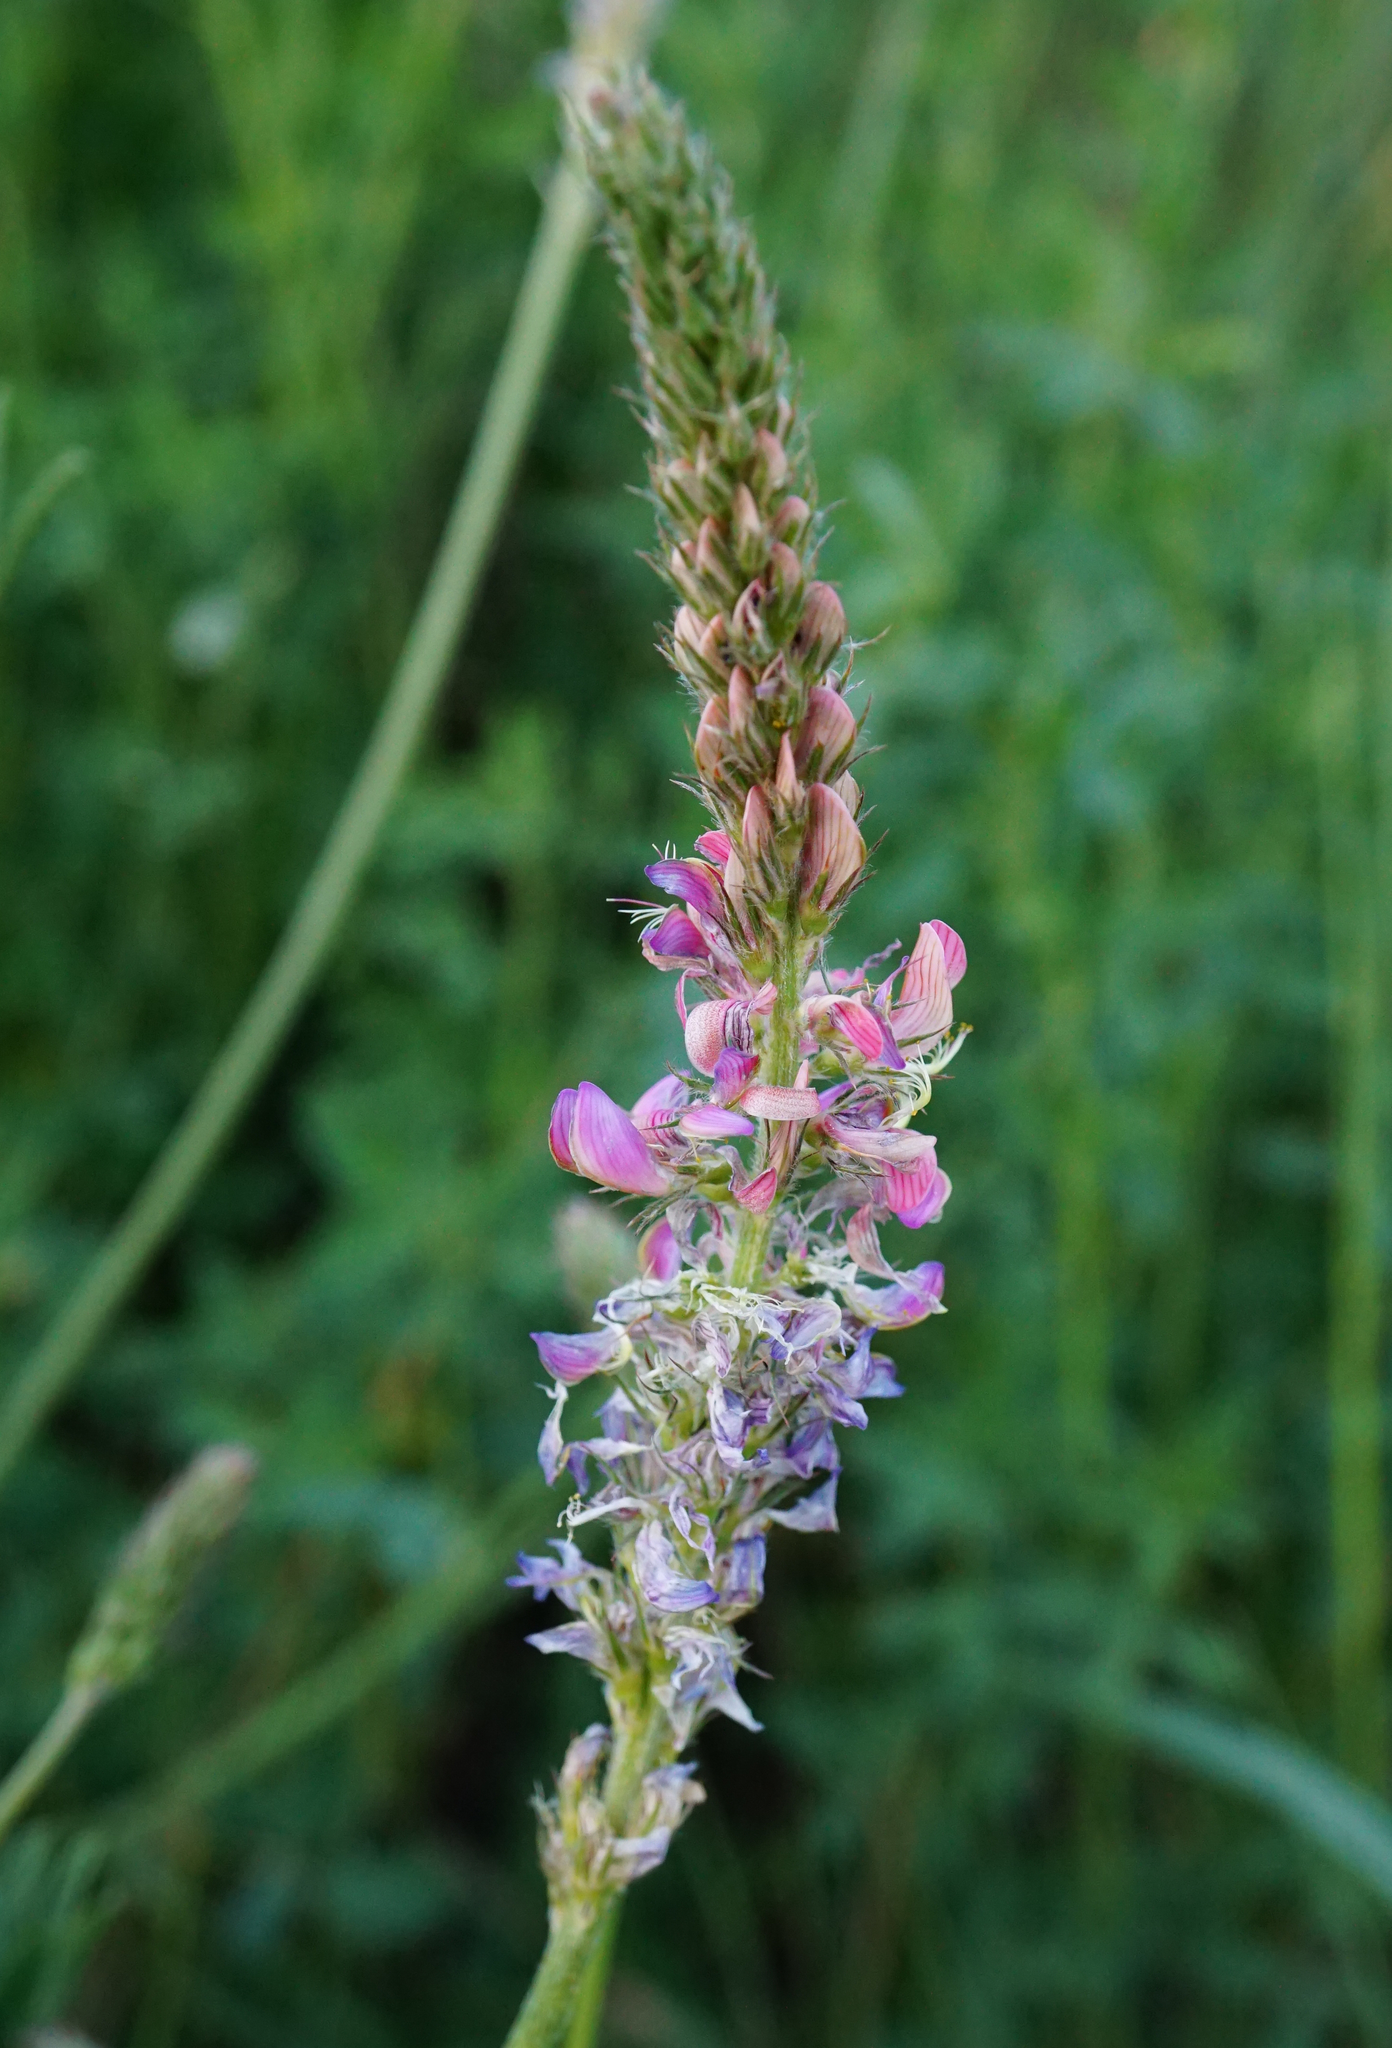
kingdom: Plantae
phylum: Tracheophyta
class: Magnoliopsida
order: Fabales
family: Fabaceae
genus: Onobrychis
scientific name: Onobrychis viciifolia
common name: Sainfoin
